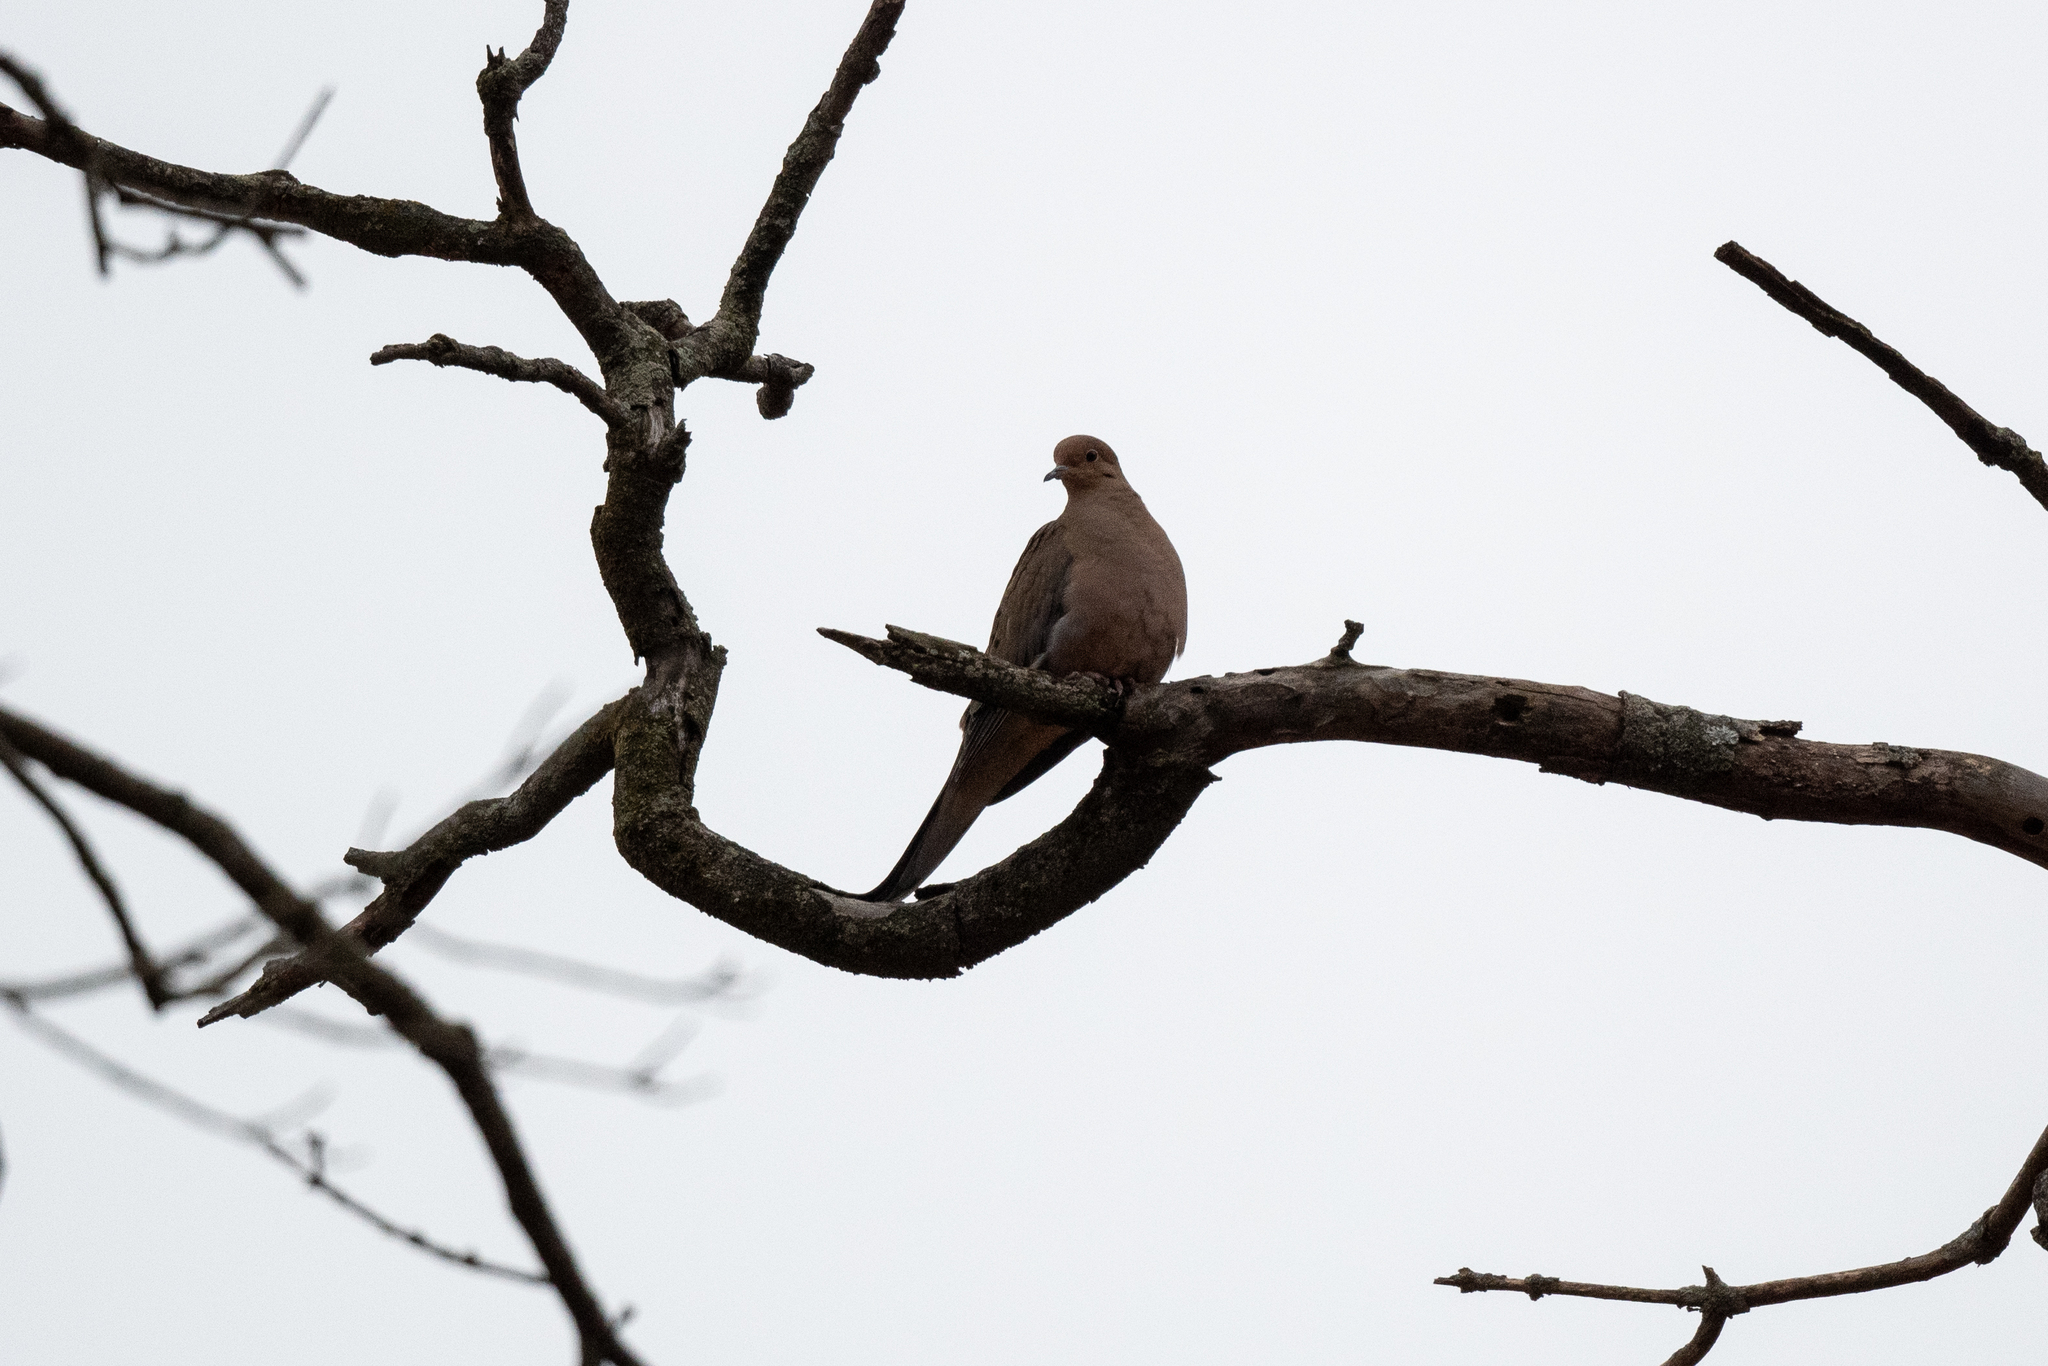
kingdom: Animalia
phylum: Chordata
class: Aves
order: Columbiformes
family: Columbidae
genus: Zenaida
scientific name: Zenaida macroura
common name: Mourning dove
